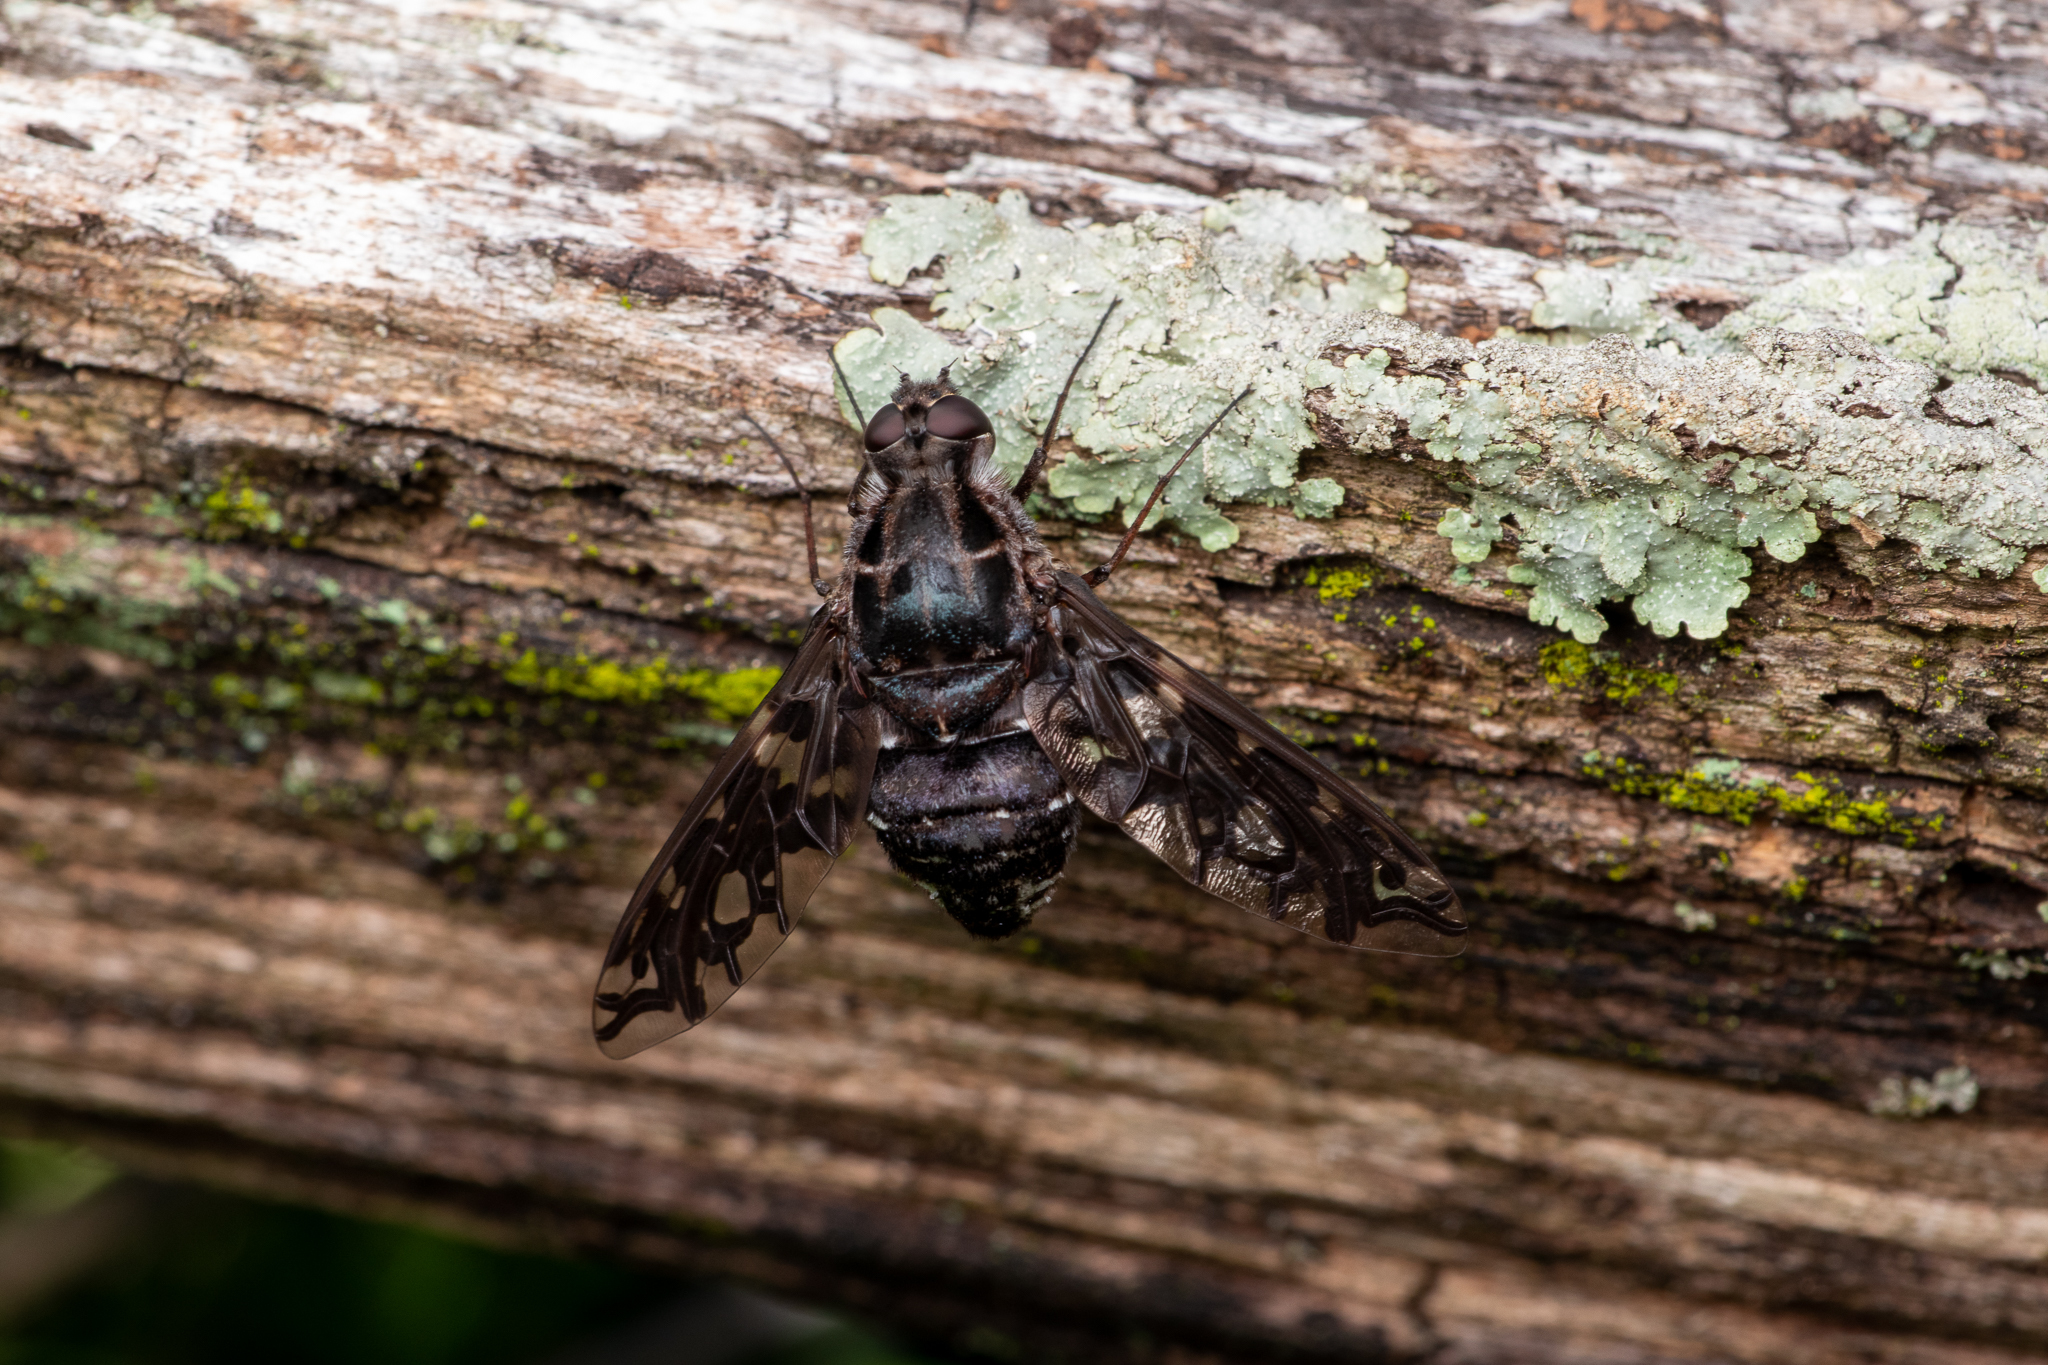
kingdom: Animalia
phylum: Arthropoda
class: Insecta
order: Diptera
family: Bombyliidae
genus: Xenox
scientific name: Xenox tigrinus
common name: Tiger bee fly
